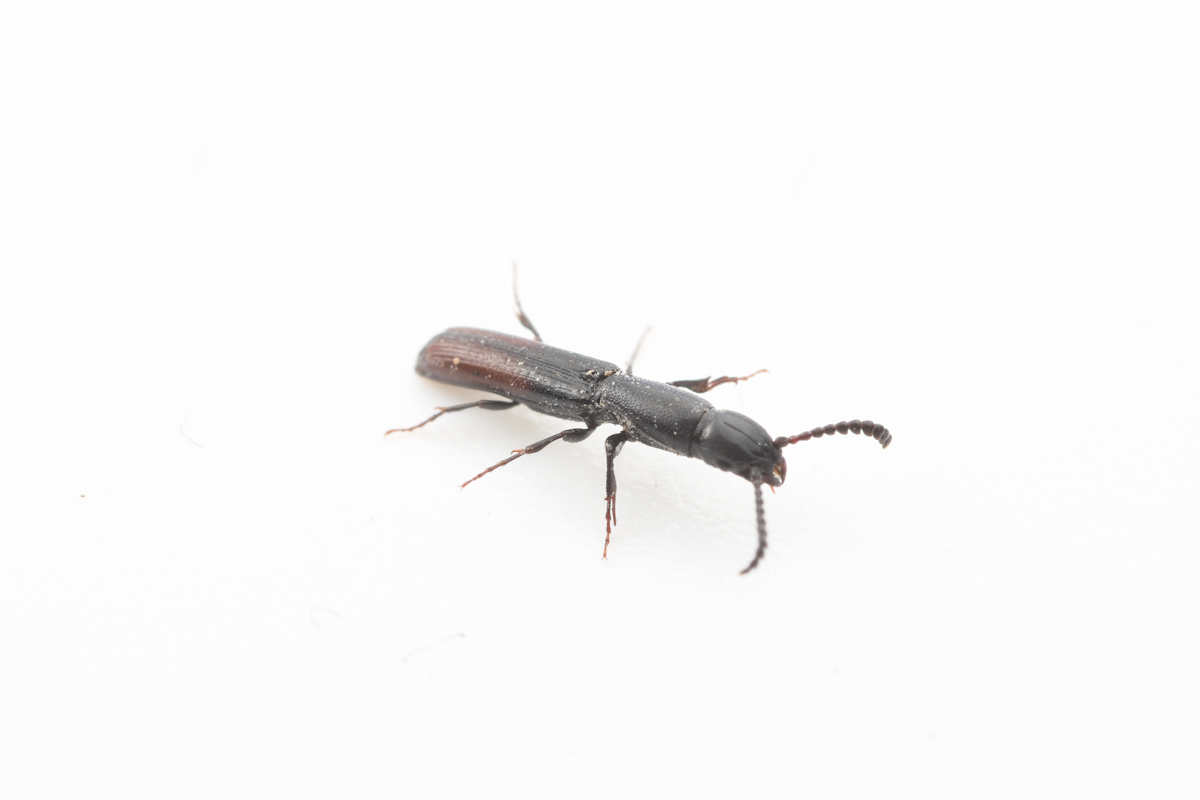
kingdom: Animalia
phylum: Arthropoda
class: Insecta
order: Coleoptera
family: Passandridae
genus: Ancistria
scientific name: Ancistria
